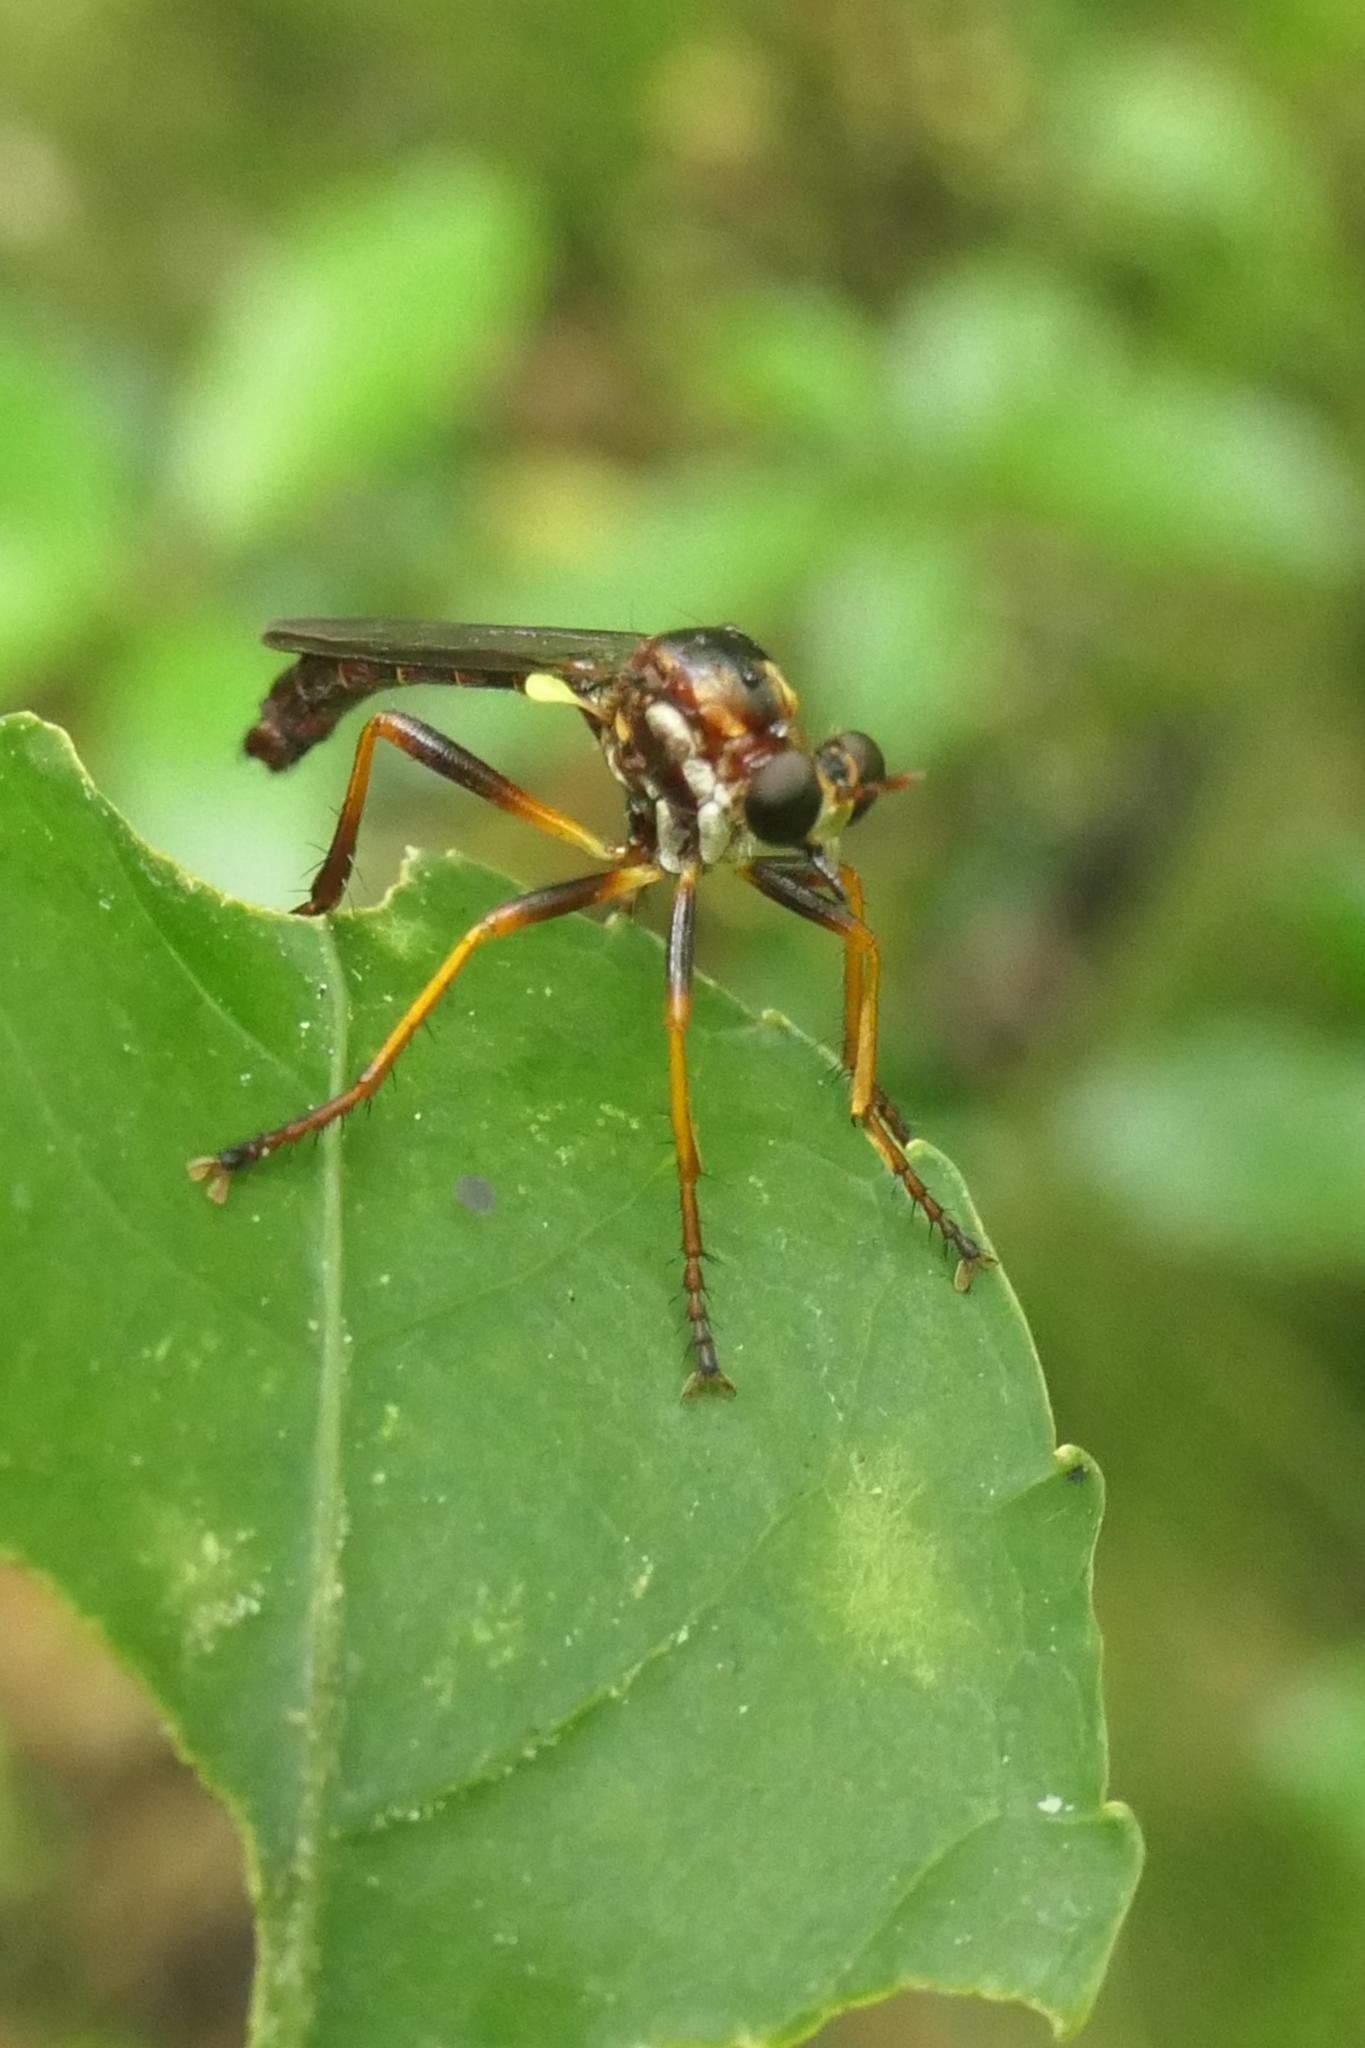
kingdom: Animalia
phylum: Arthropoda
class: Insecta
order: Diptera
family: Asilidae
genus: Saropogon
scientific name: Saropogon fascipes
